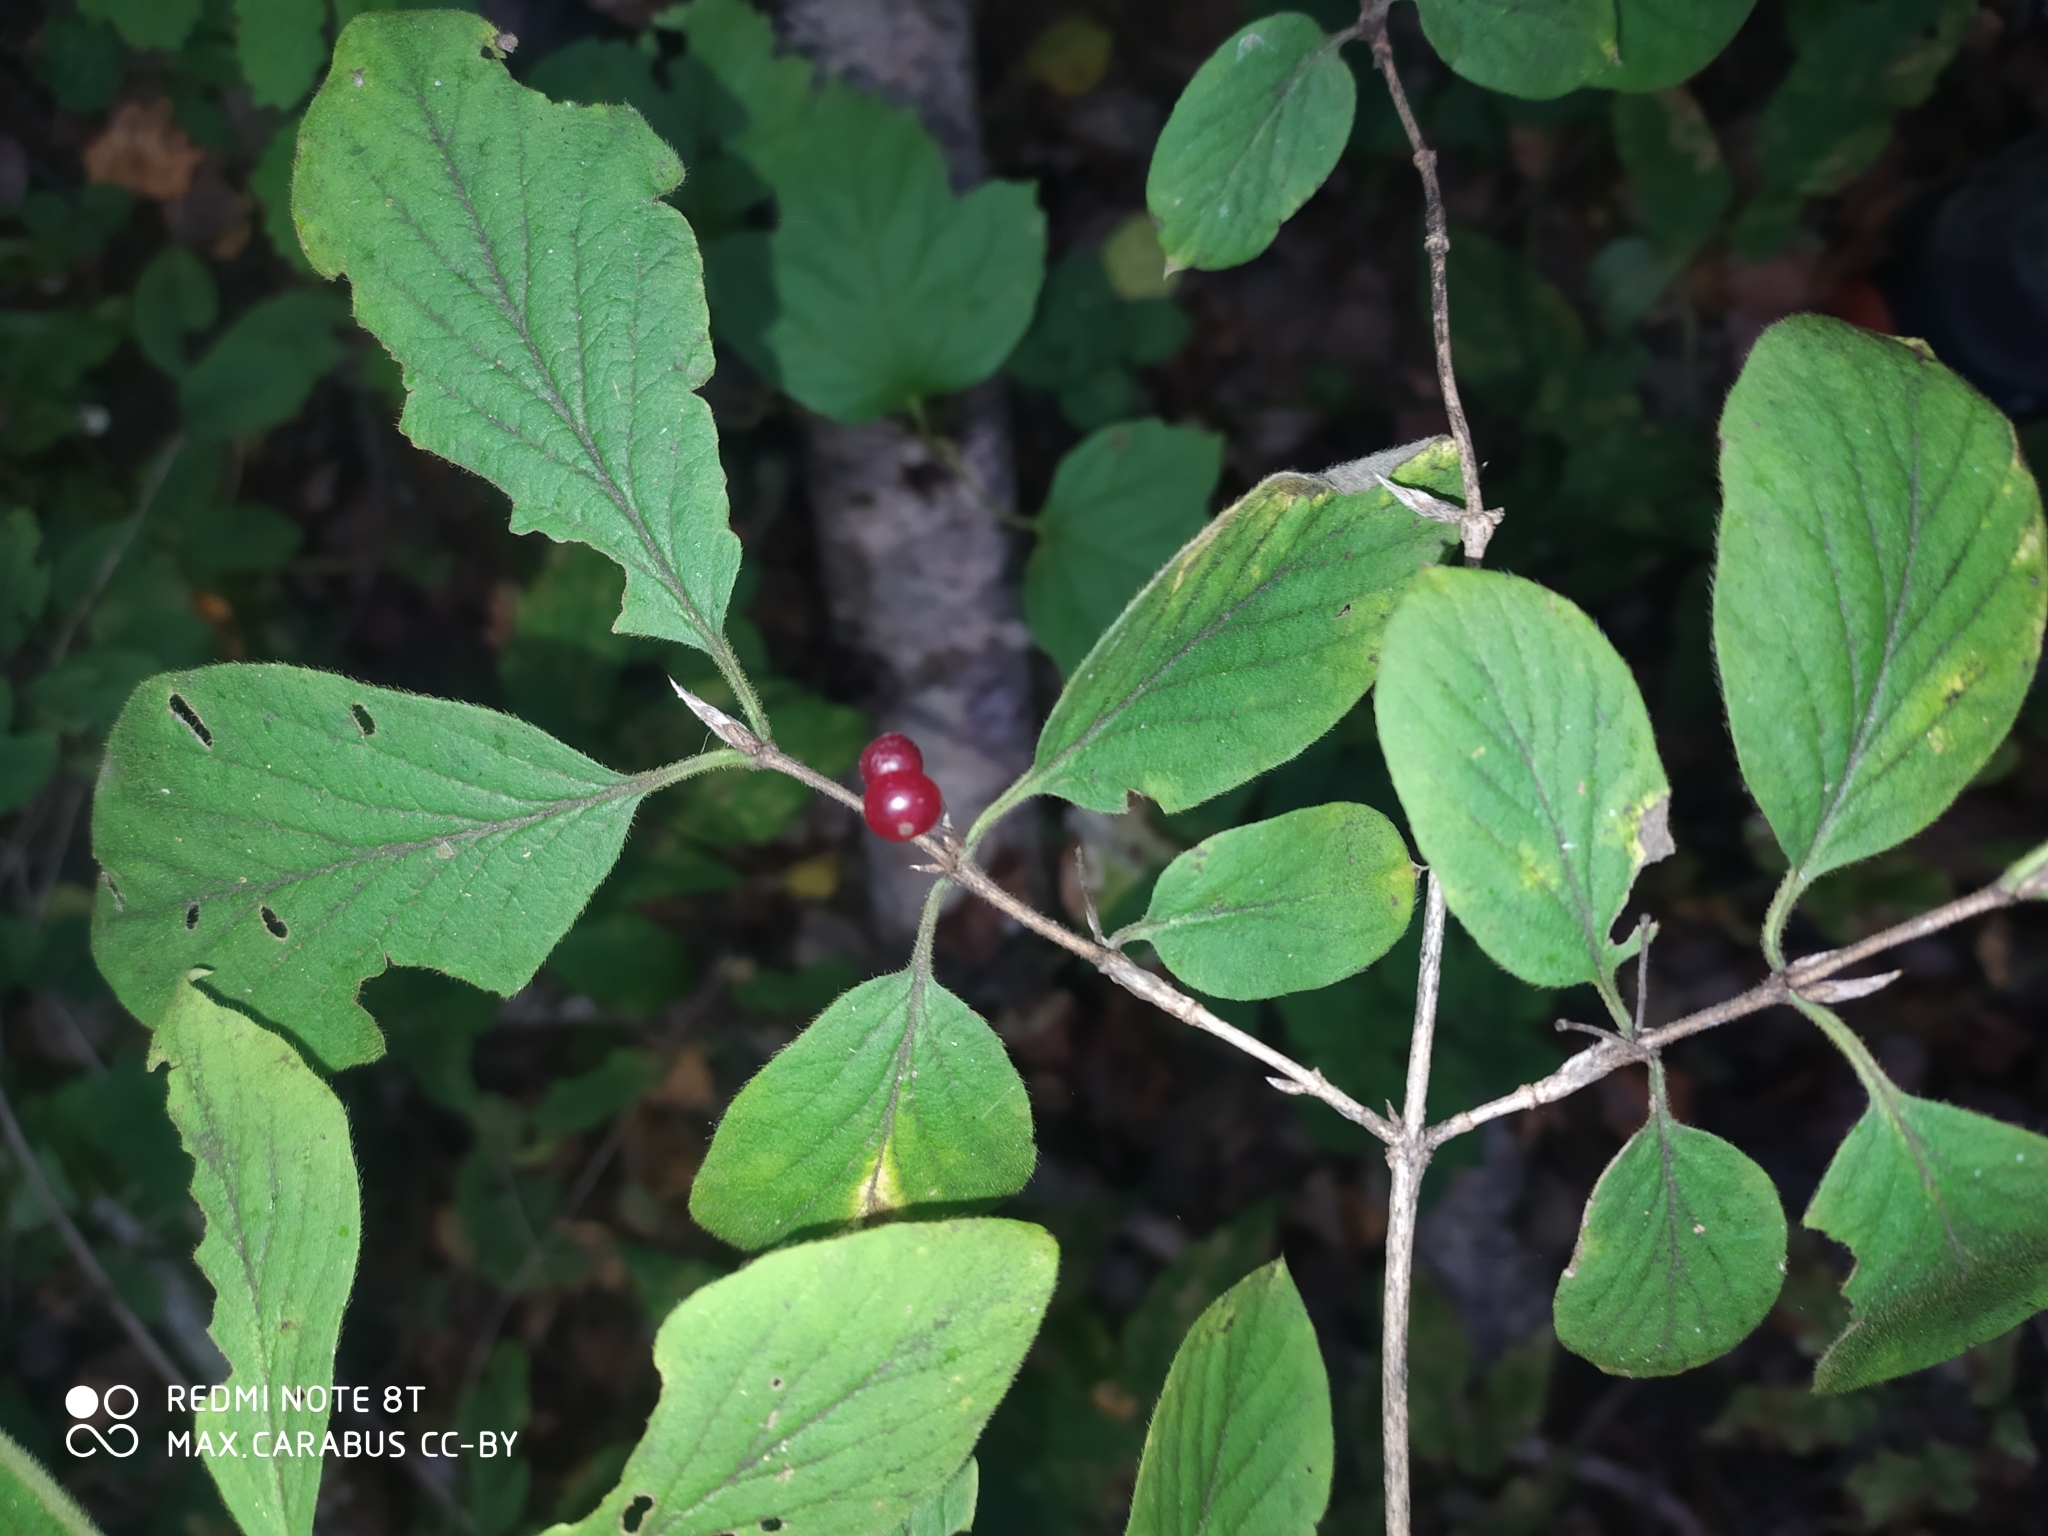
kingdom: Plantae
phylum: Tracheophyta
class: Magnoliopsida
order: Dipsacales
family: Caprifoliaceae
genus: Lonicera
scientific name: Lonicera xylosteum
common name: Fly honeysuckle
